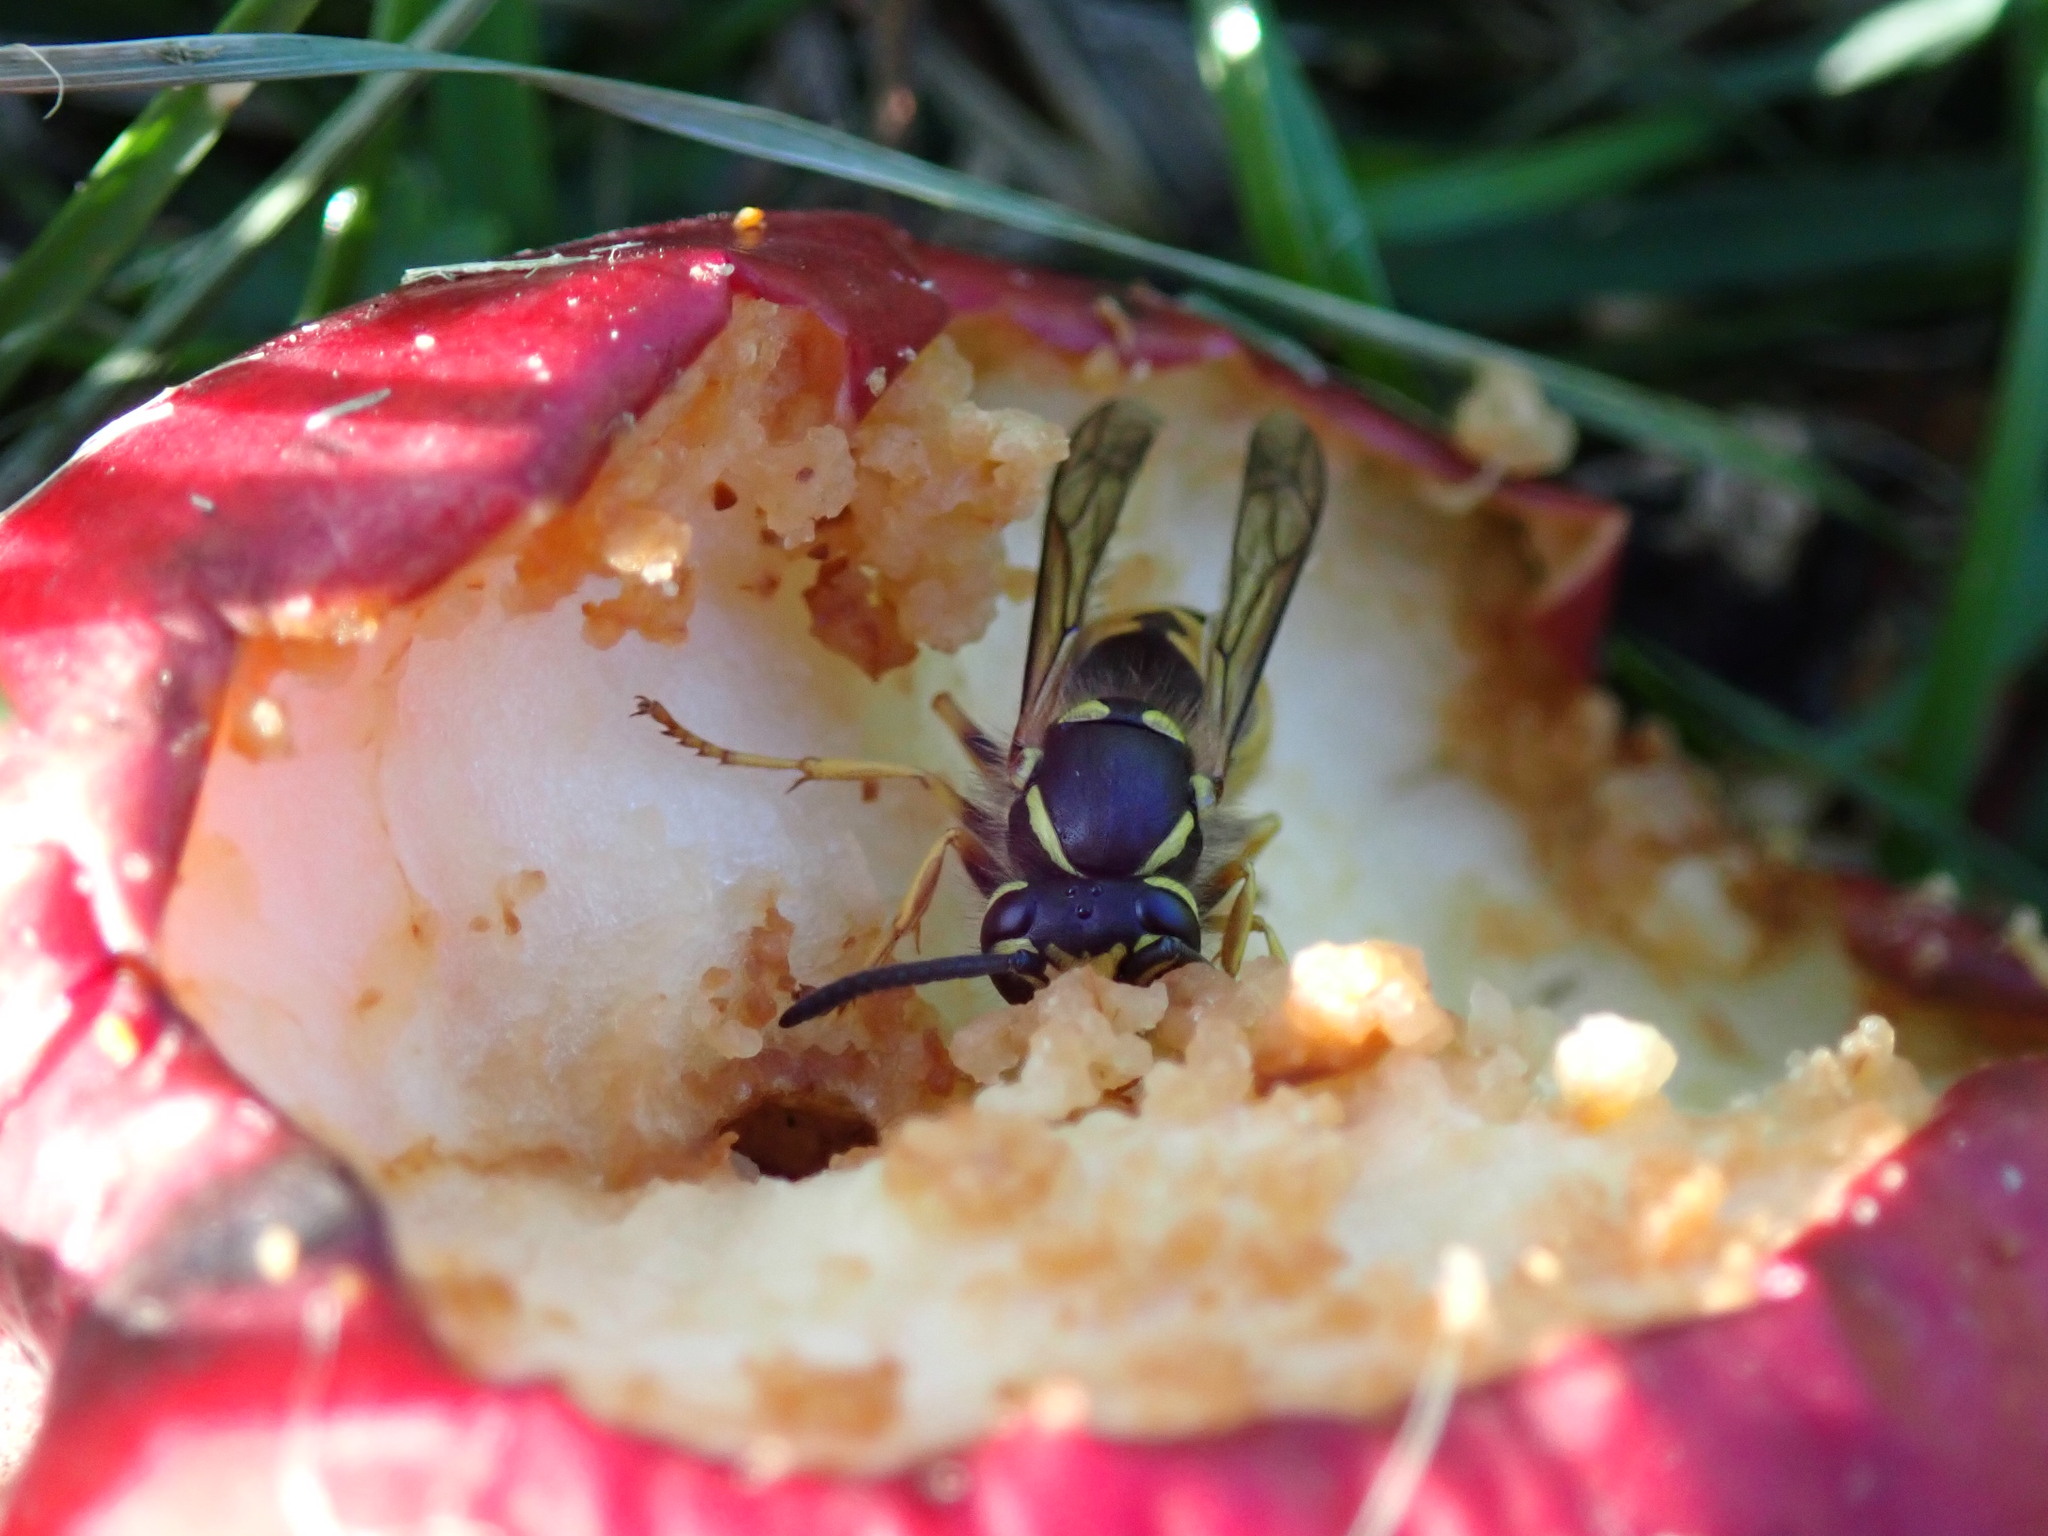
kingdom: Animalia
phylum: Arthropoda
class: Insecta
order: Hymenoptera
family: Vespidae
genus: Vespula
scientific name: Vespula germanica
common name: German wasp
